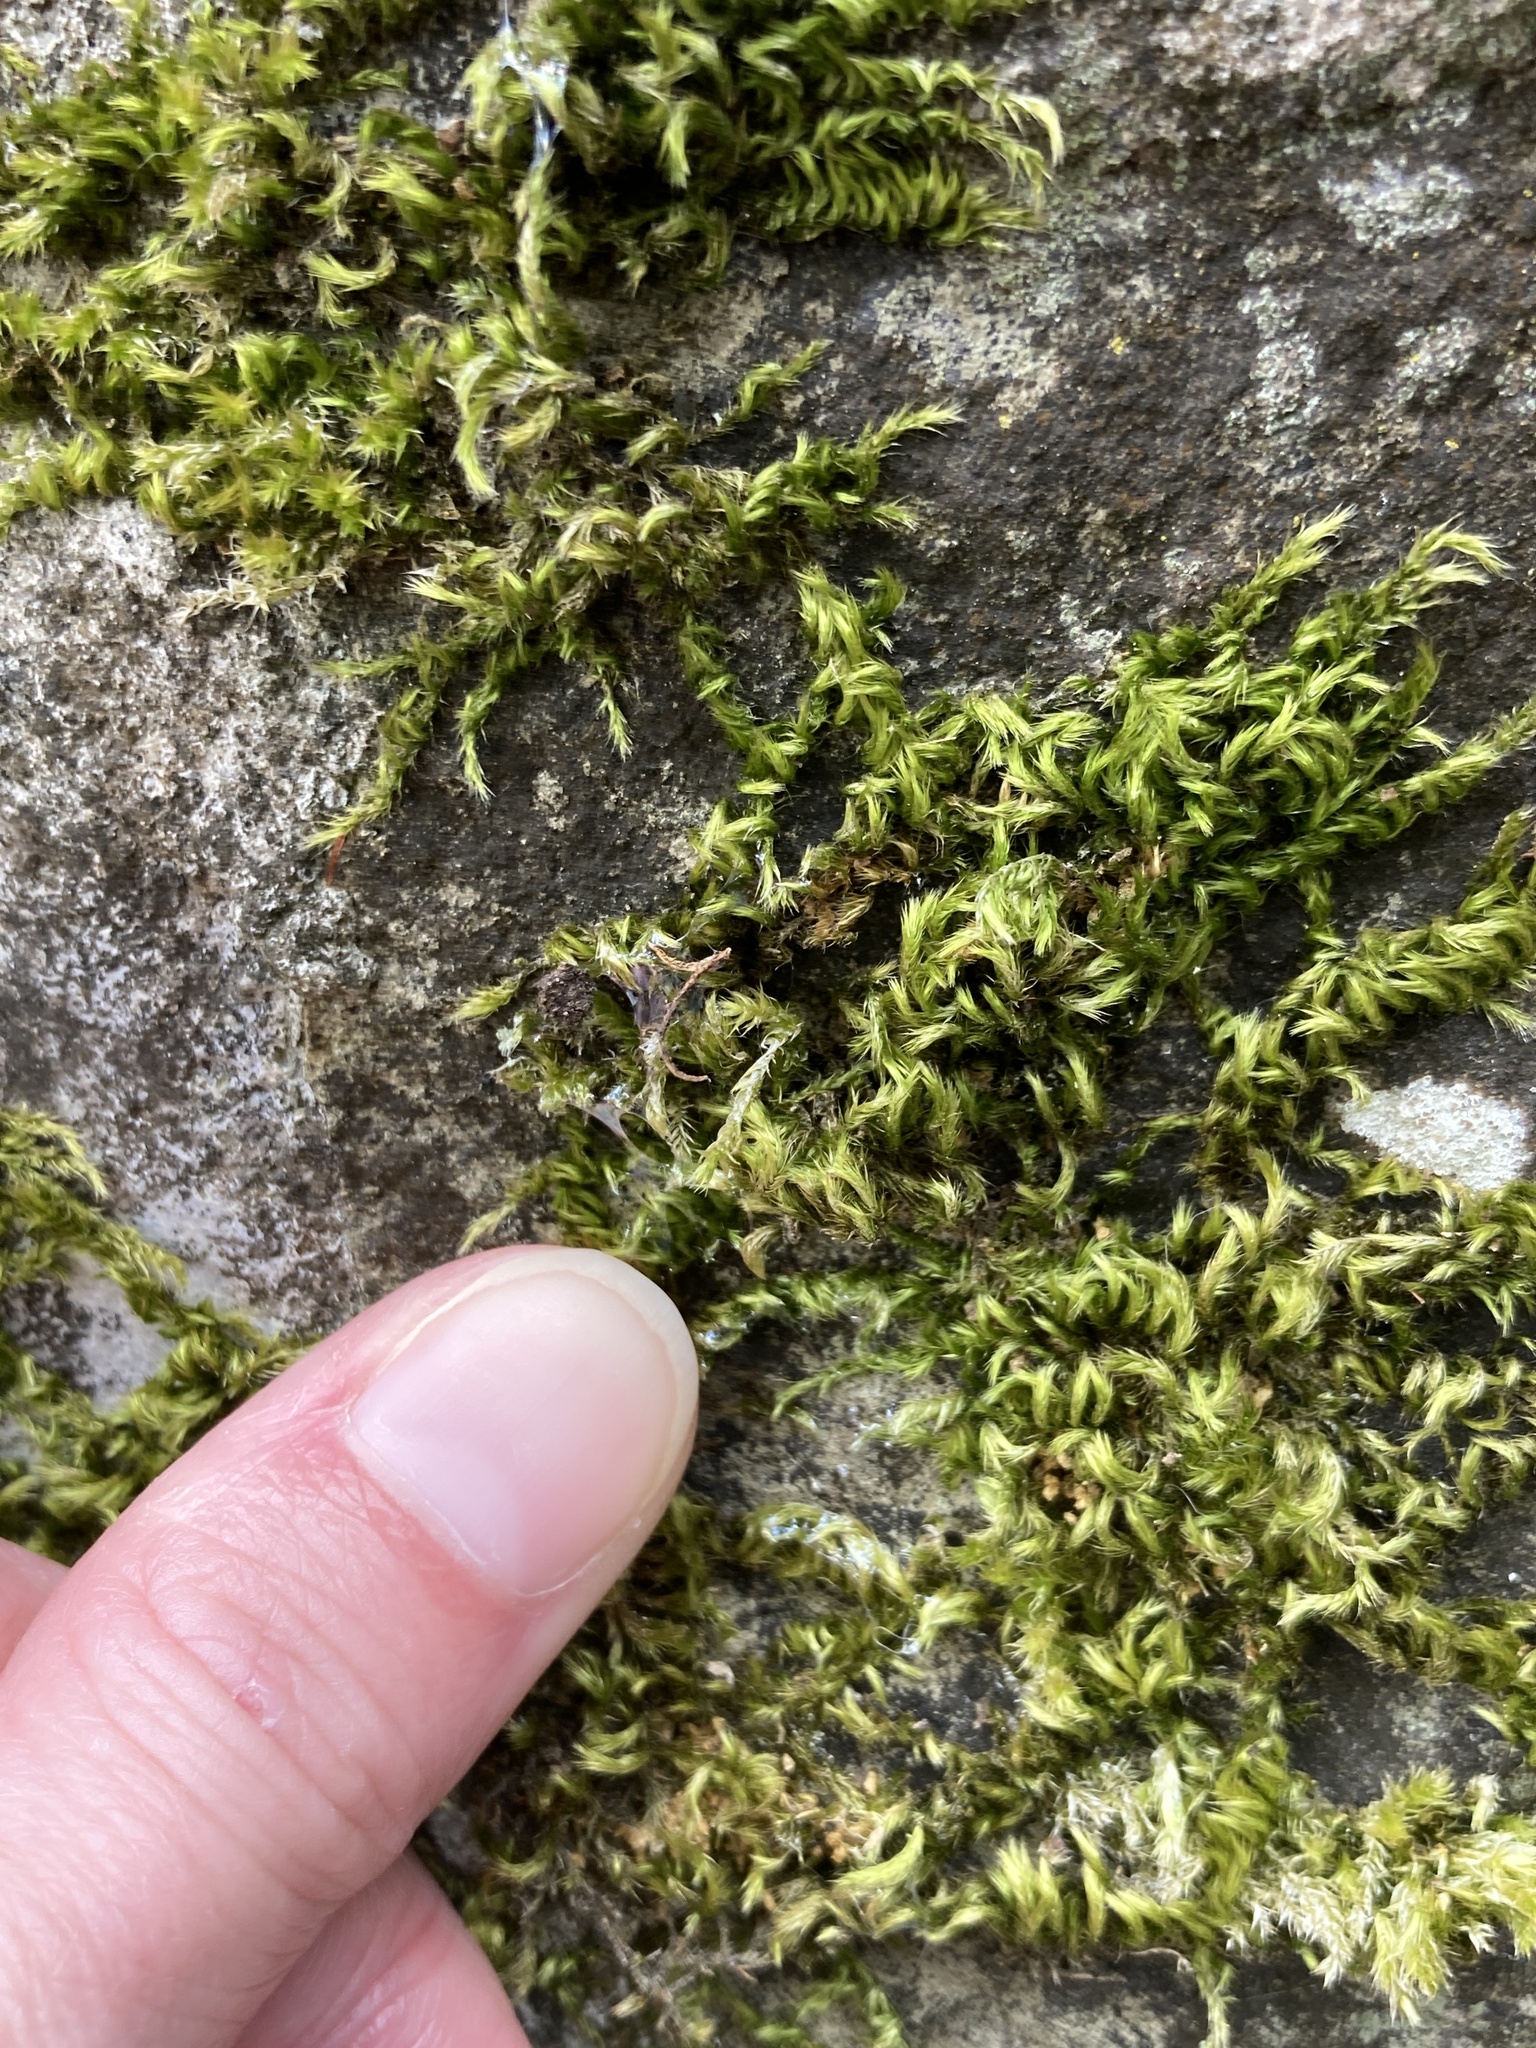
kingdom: Plantae
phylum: Bryophyta
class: Bryopsida
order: Hypnales
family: Brachytheciaceae
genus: Homalothecium
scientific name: Homalothecium sericeum
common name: Silky wall feather-moss
